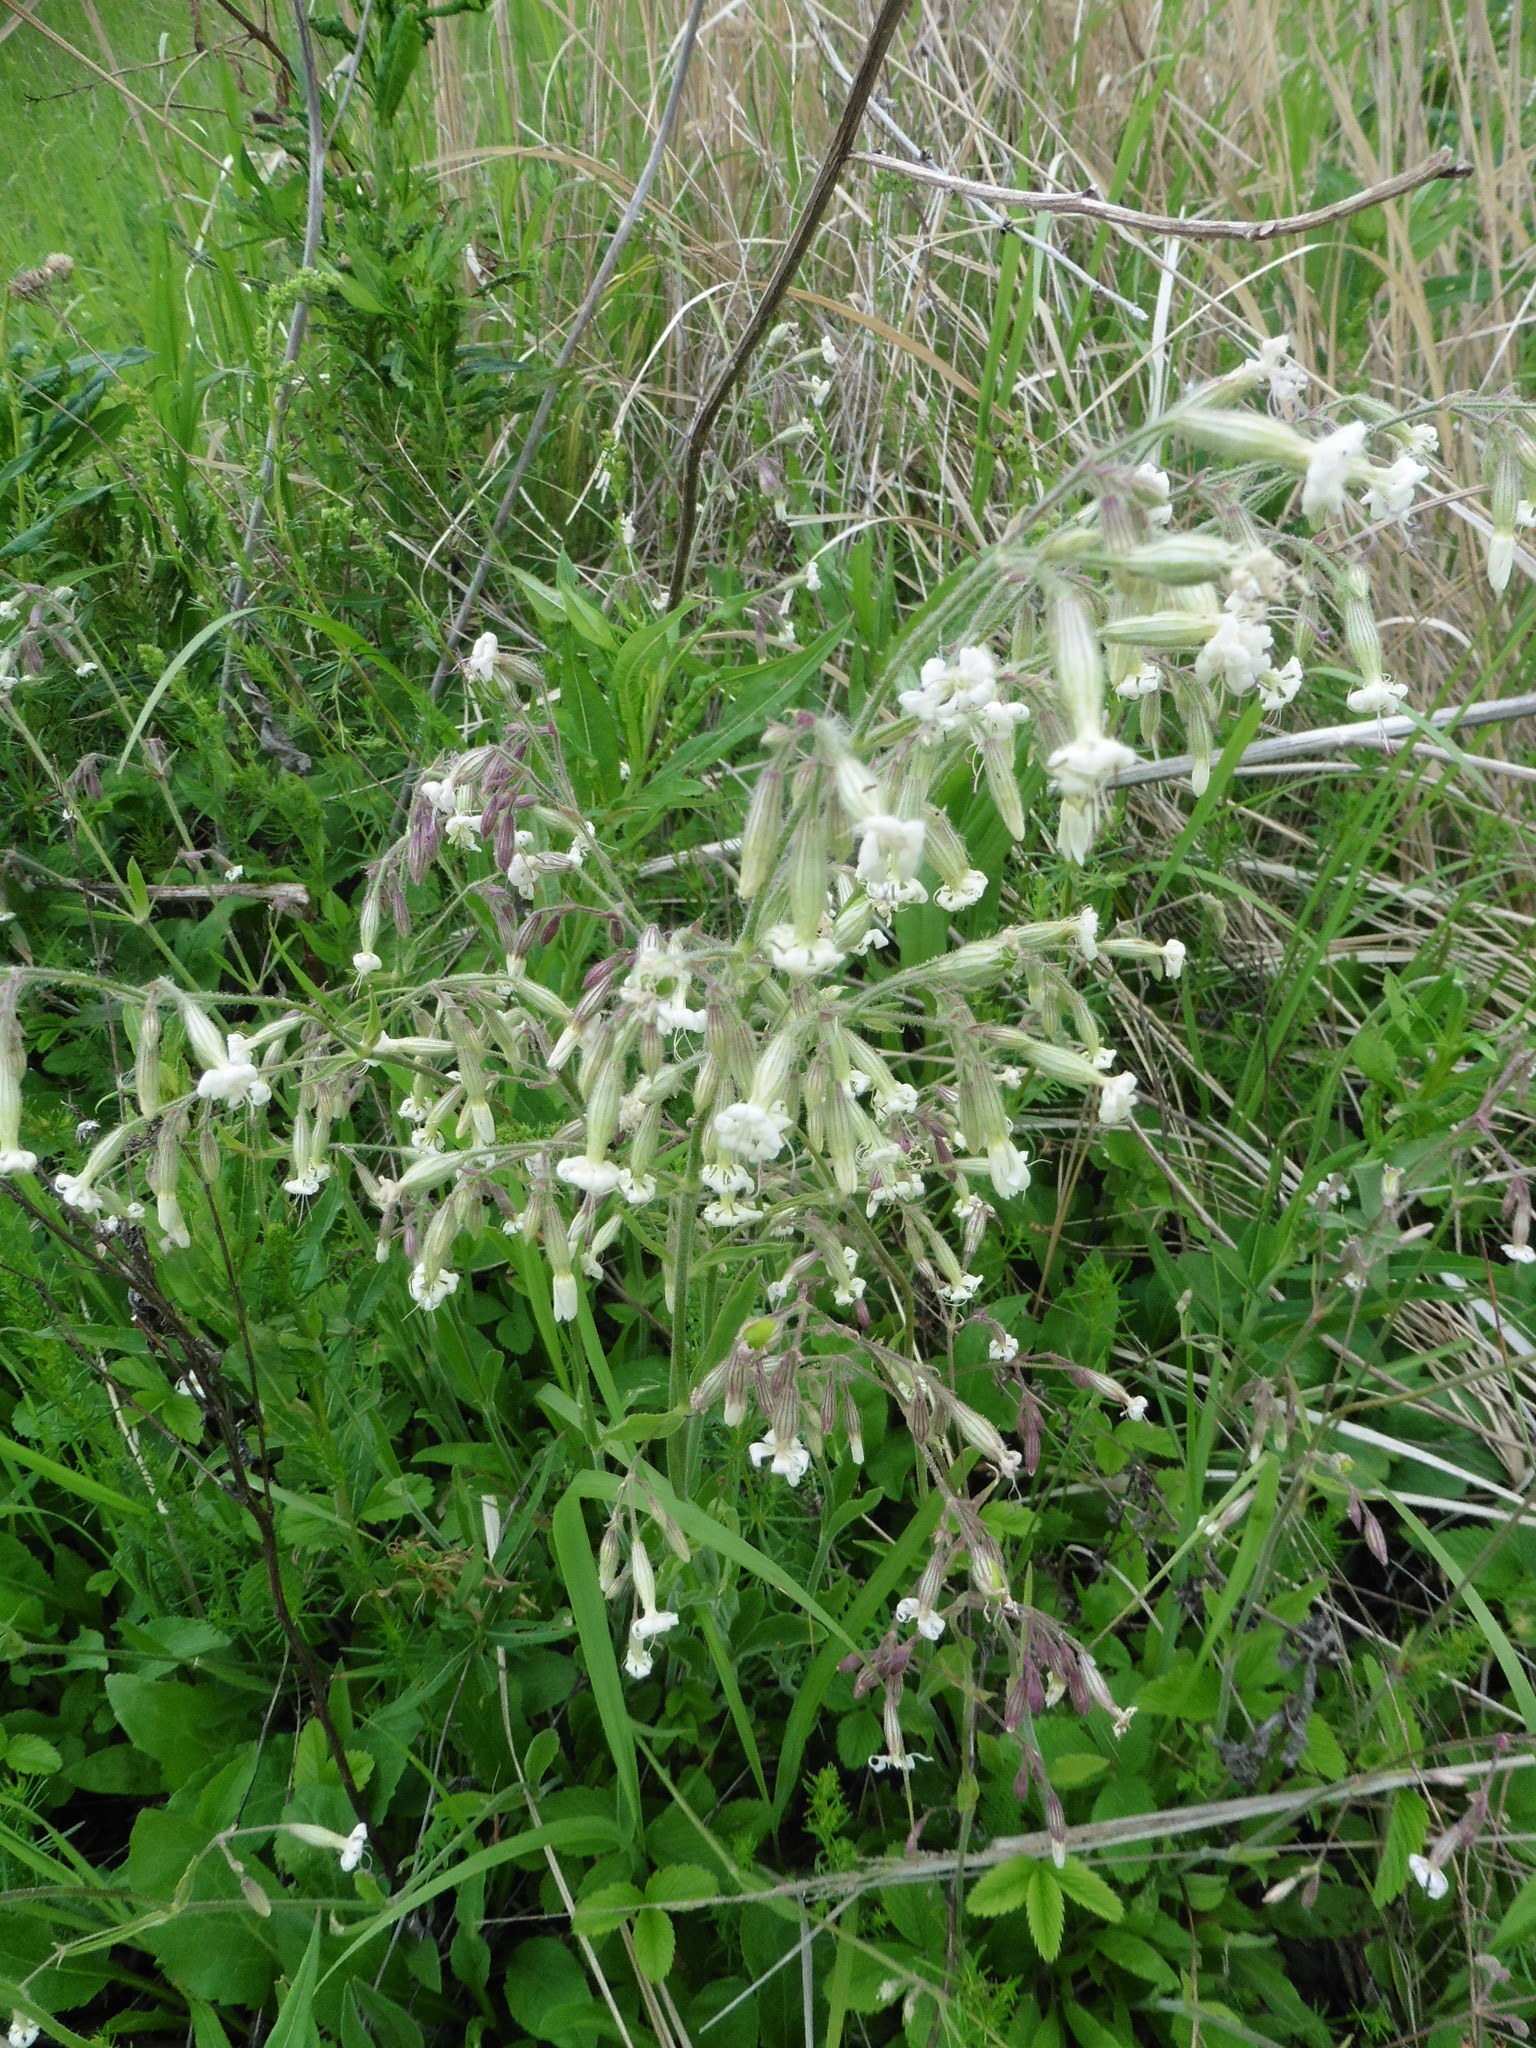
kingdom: Plantae
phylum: Tracheophyta
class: Magnoliopsida
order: Caryophyllales
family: Caryophyllaceae
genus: Silene
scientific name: Silene nutans
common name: Nottingham catchfly
